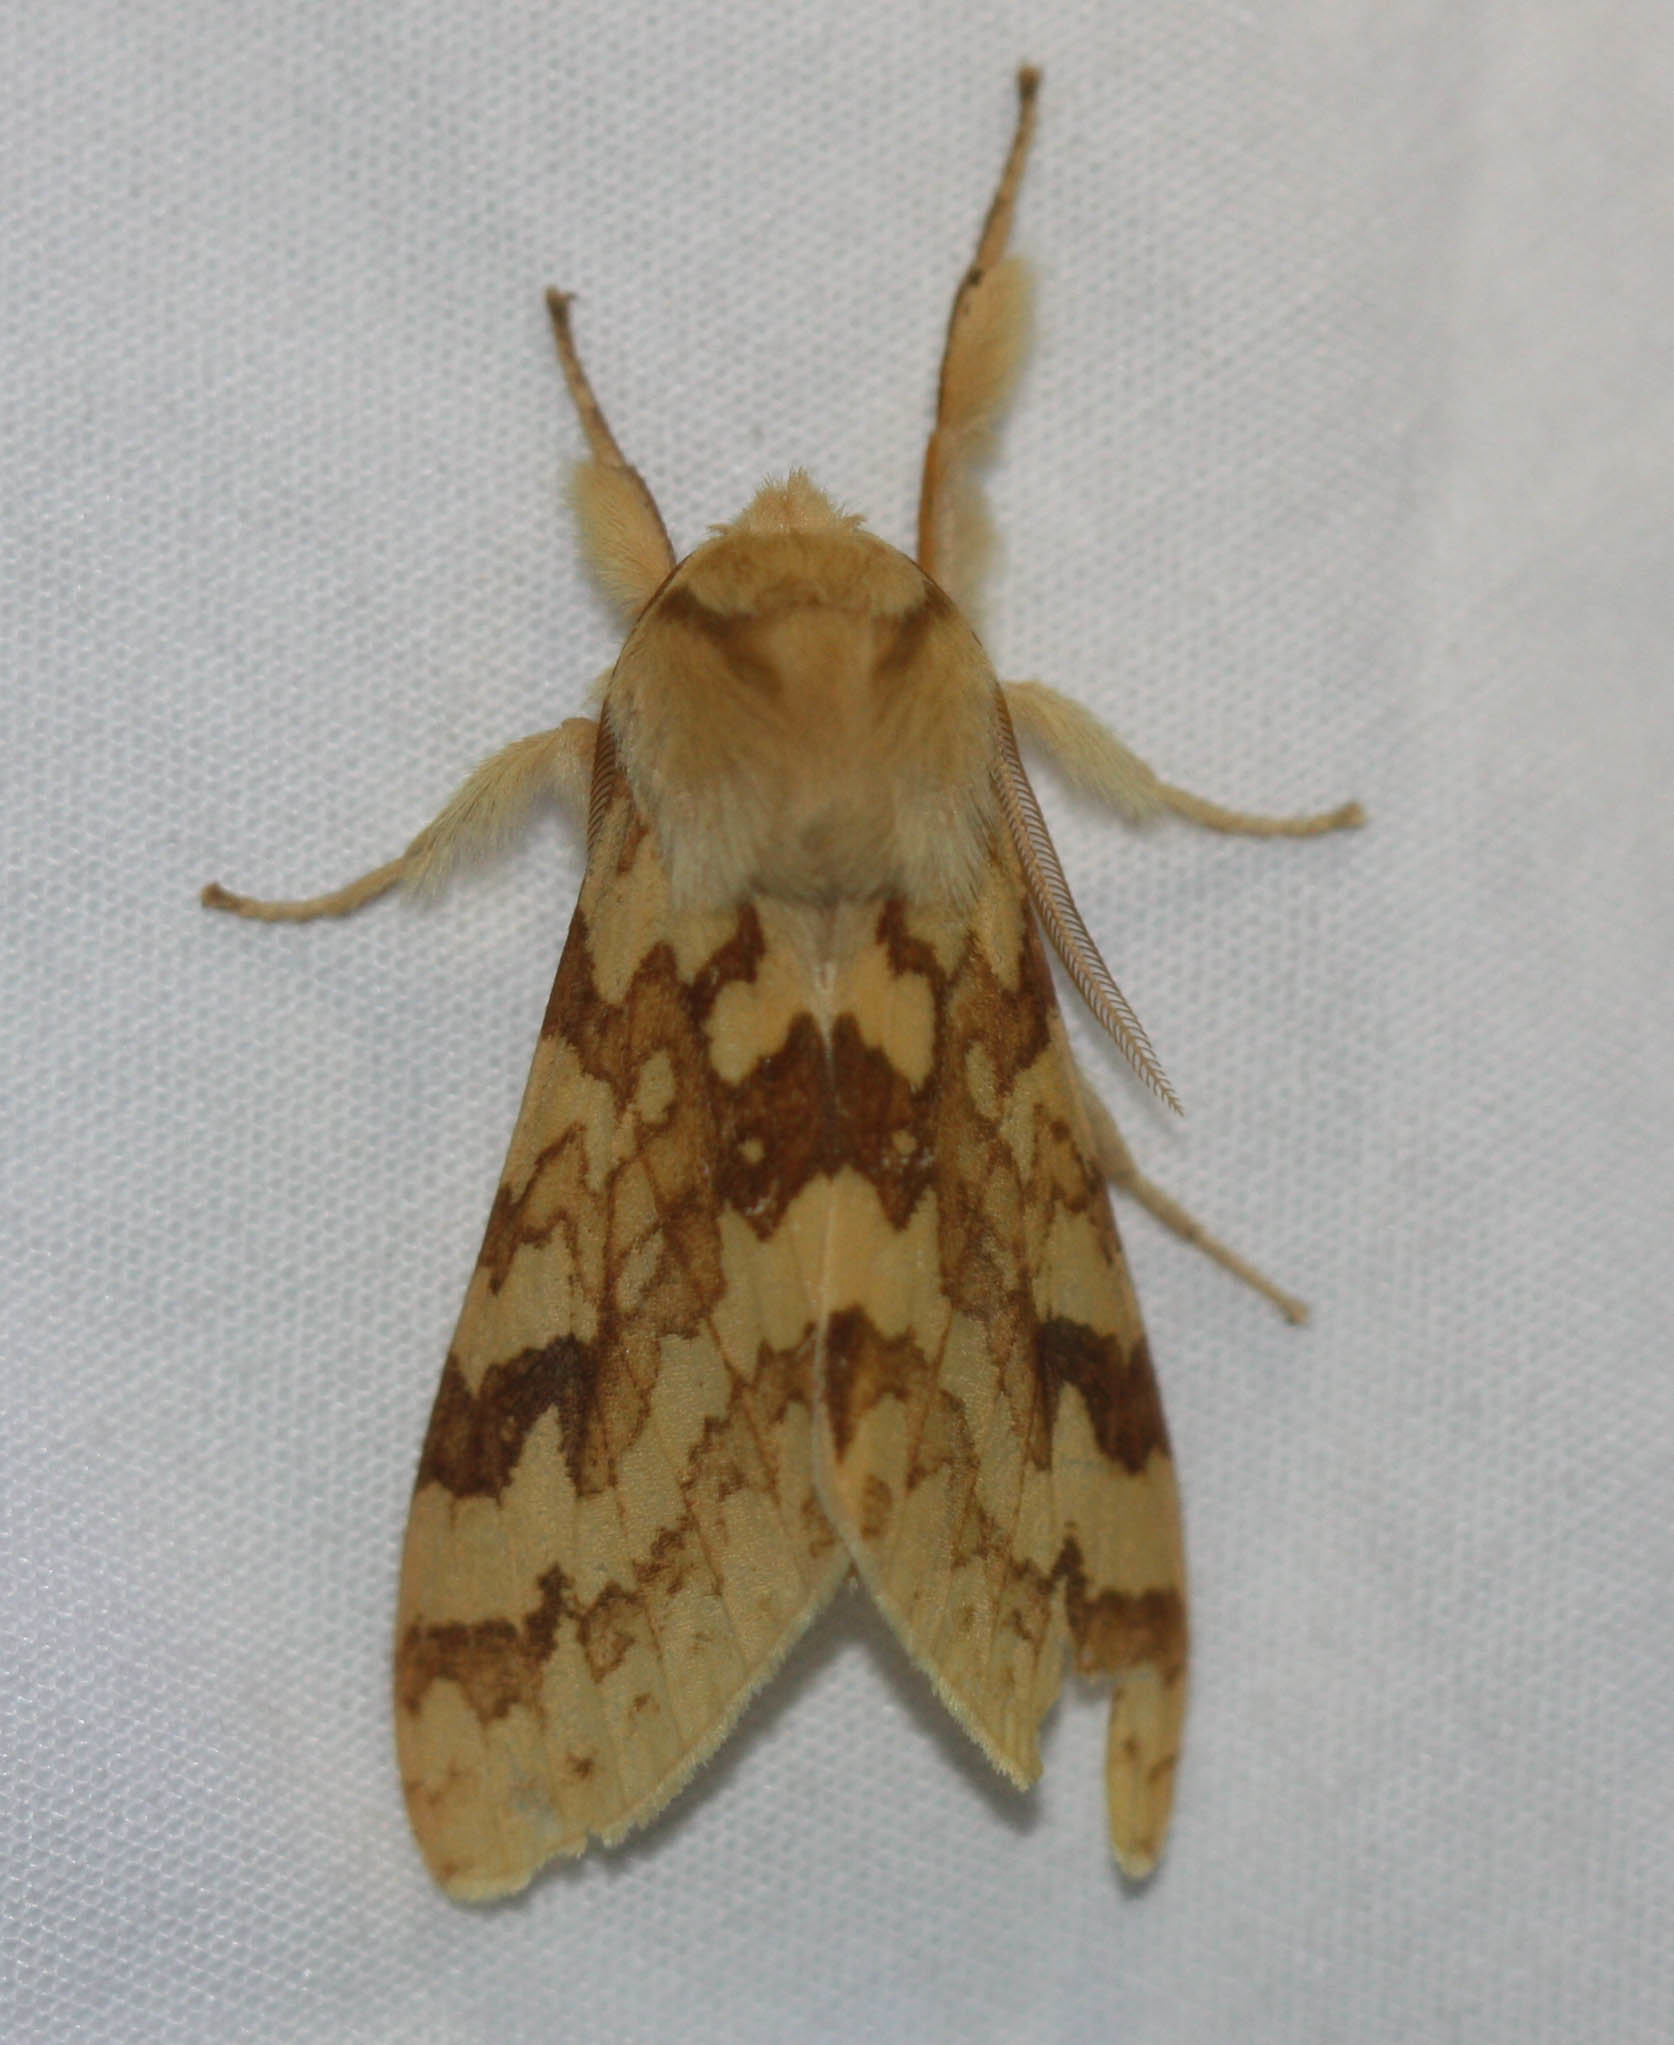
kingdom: Animalia
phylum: Arthropoda
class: Insecta
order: Lepidoptera
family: Erebidae
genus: Lophocampa
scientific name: Lophocampa maculata
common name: Spotted tussock moth
